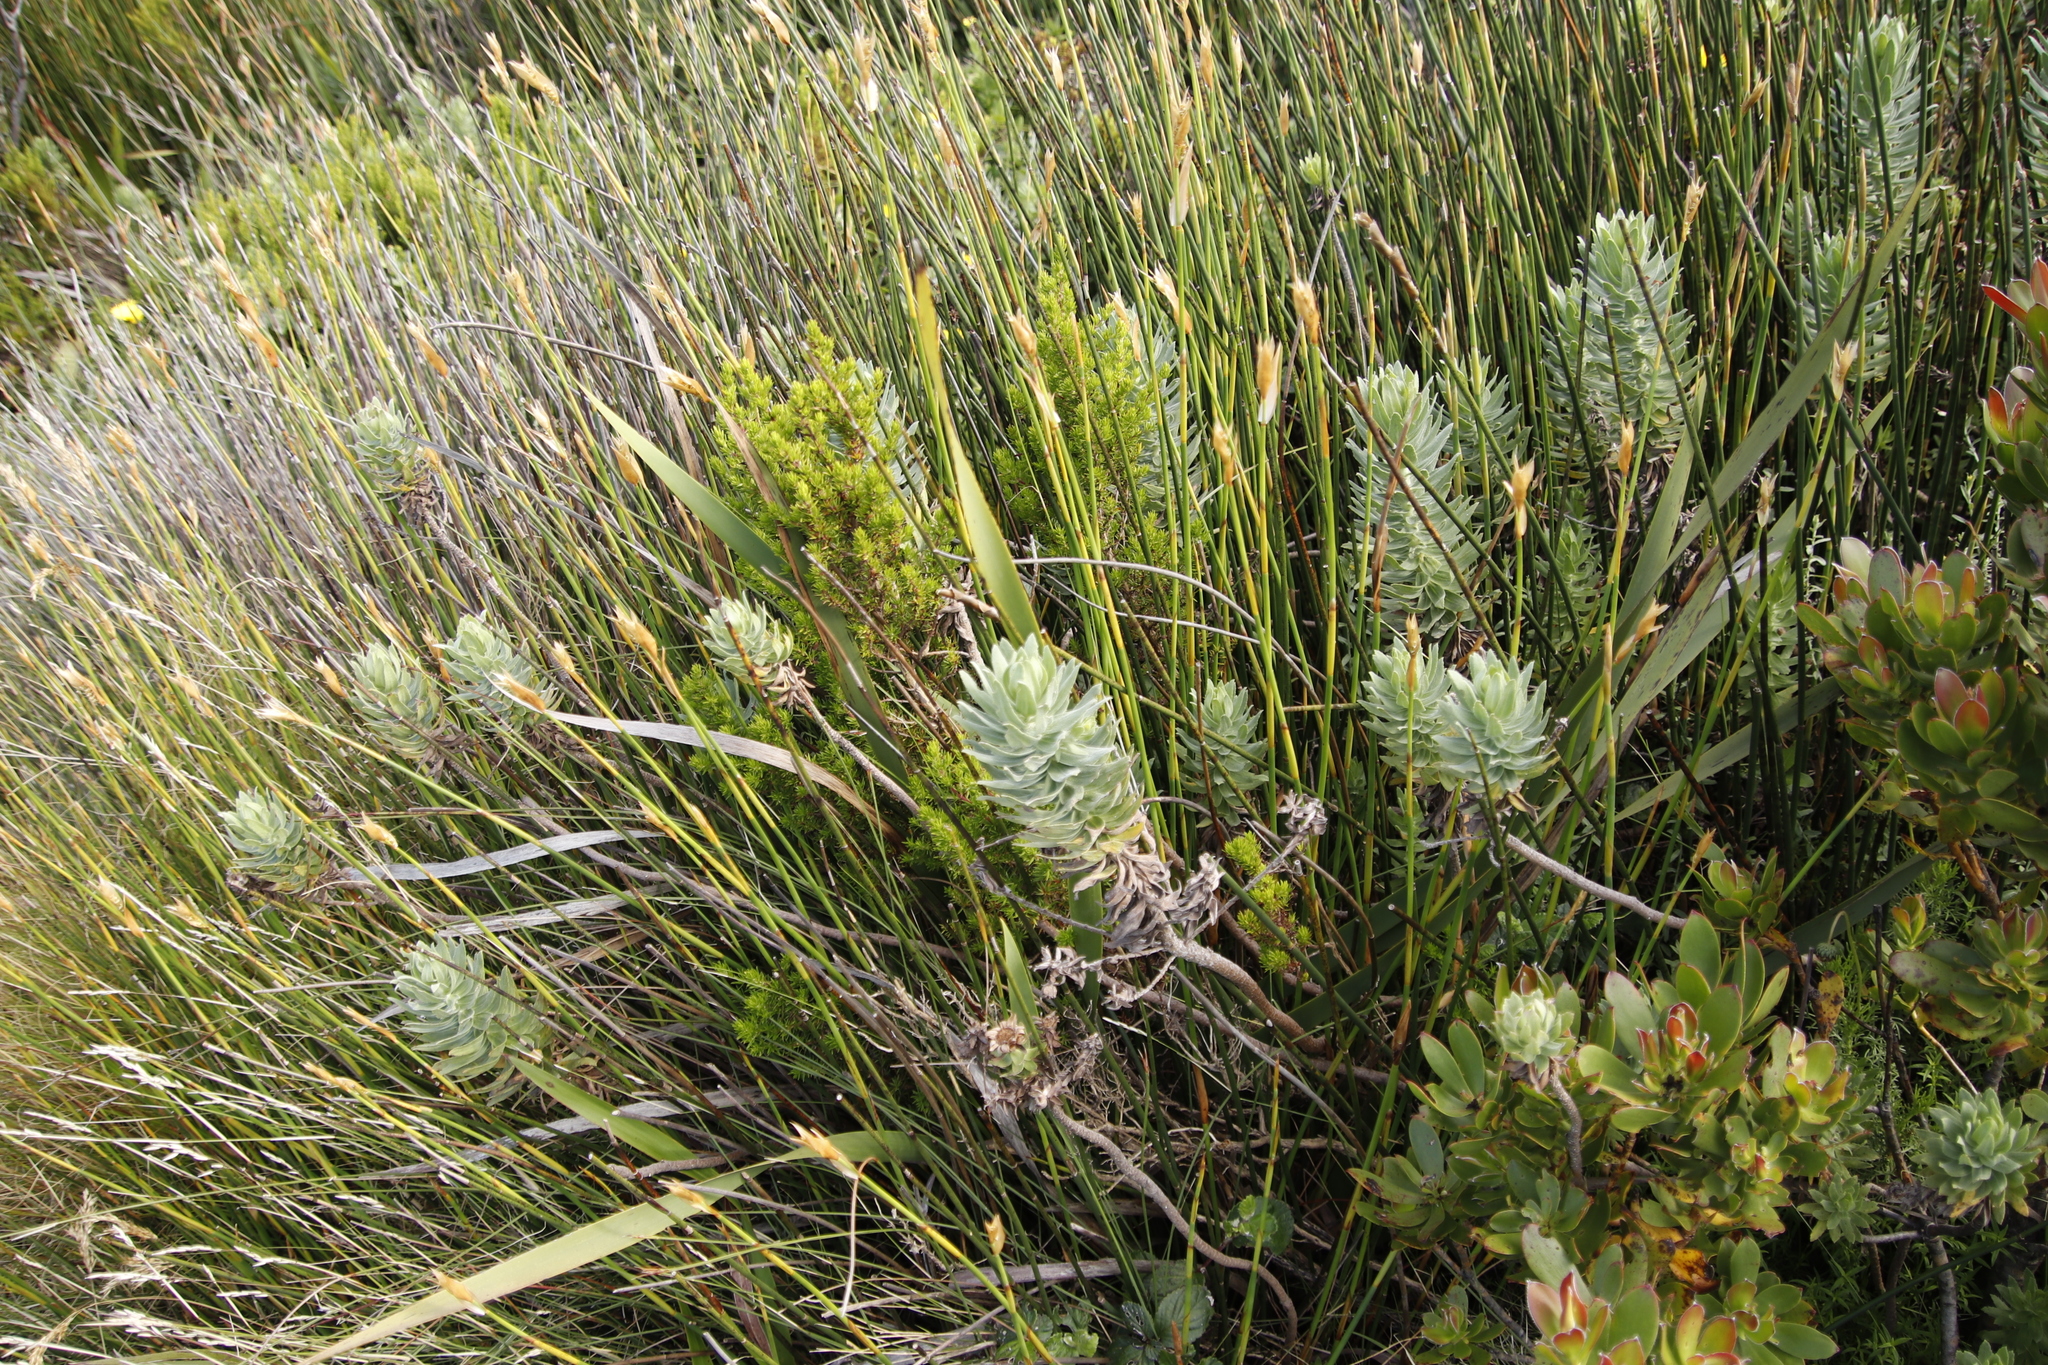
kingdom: Plantae
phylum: Tracheophyta
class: Magnoliopsida
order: Asterales
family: Asteraceae
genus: Osmitopsis
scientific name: Osmitopsis asteriscoides
